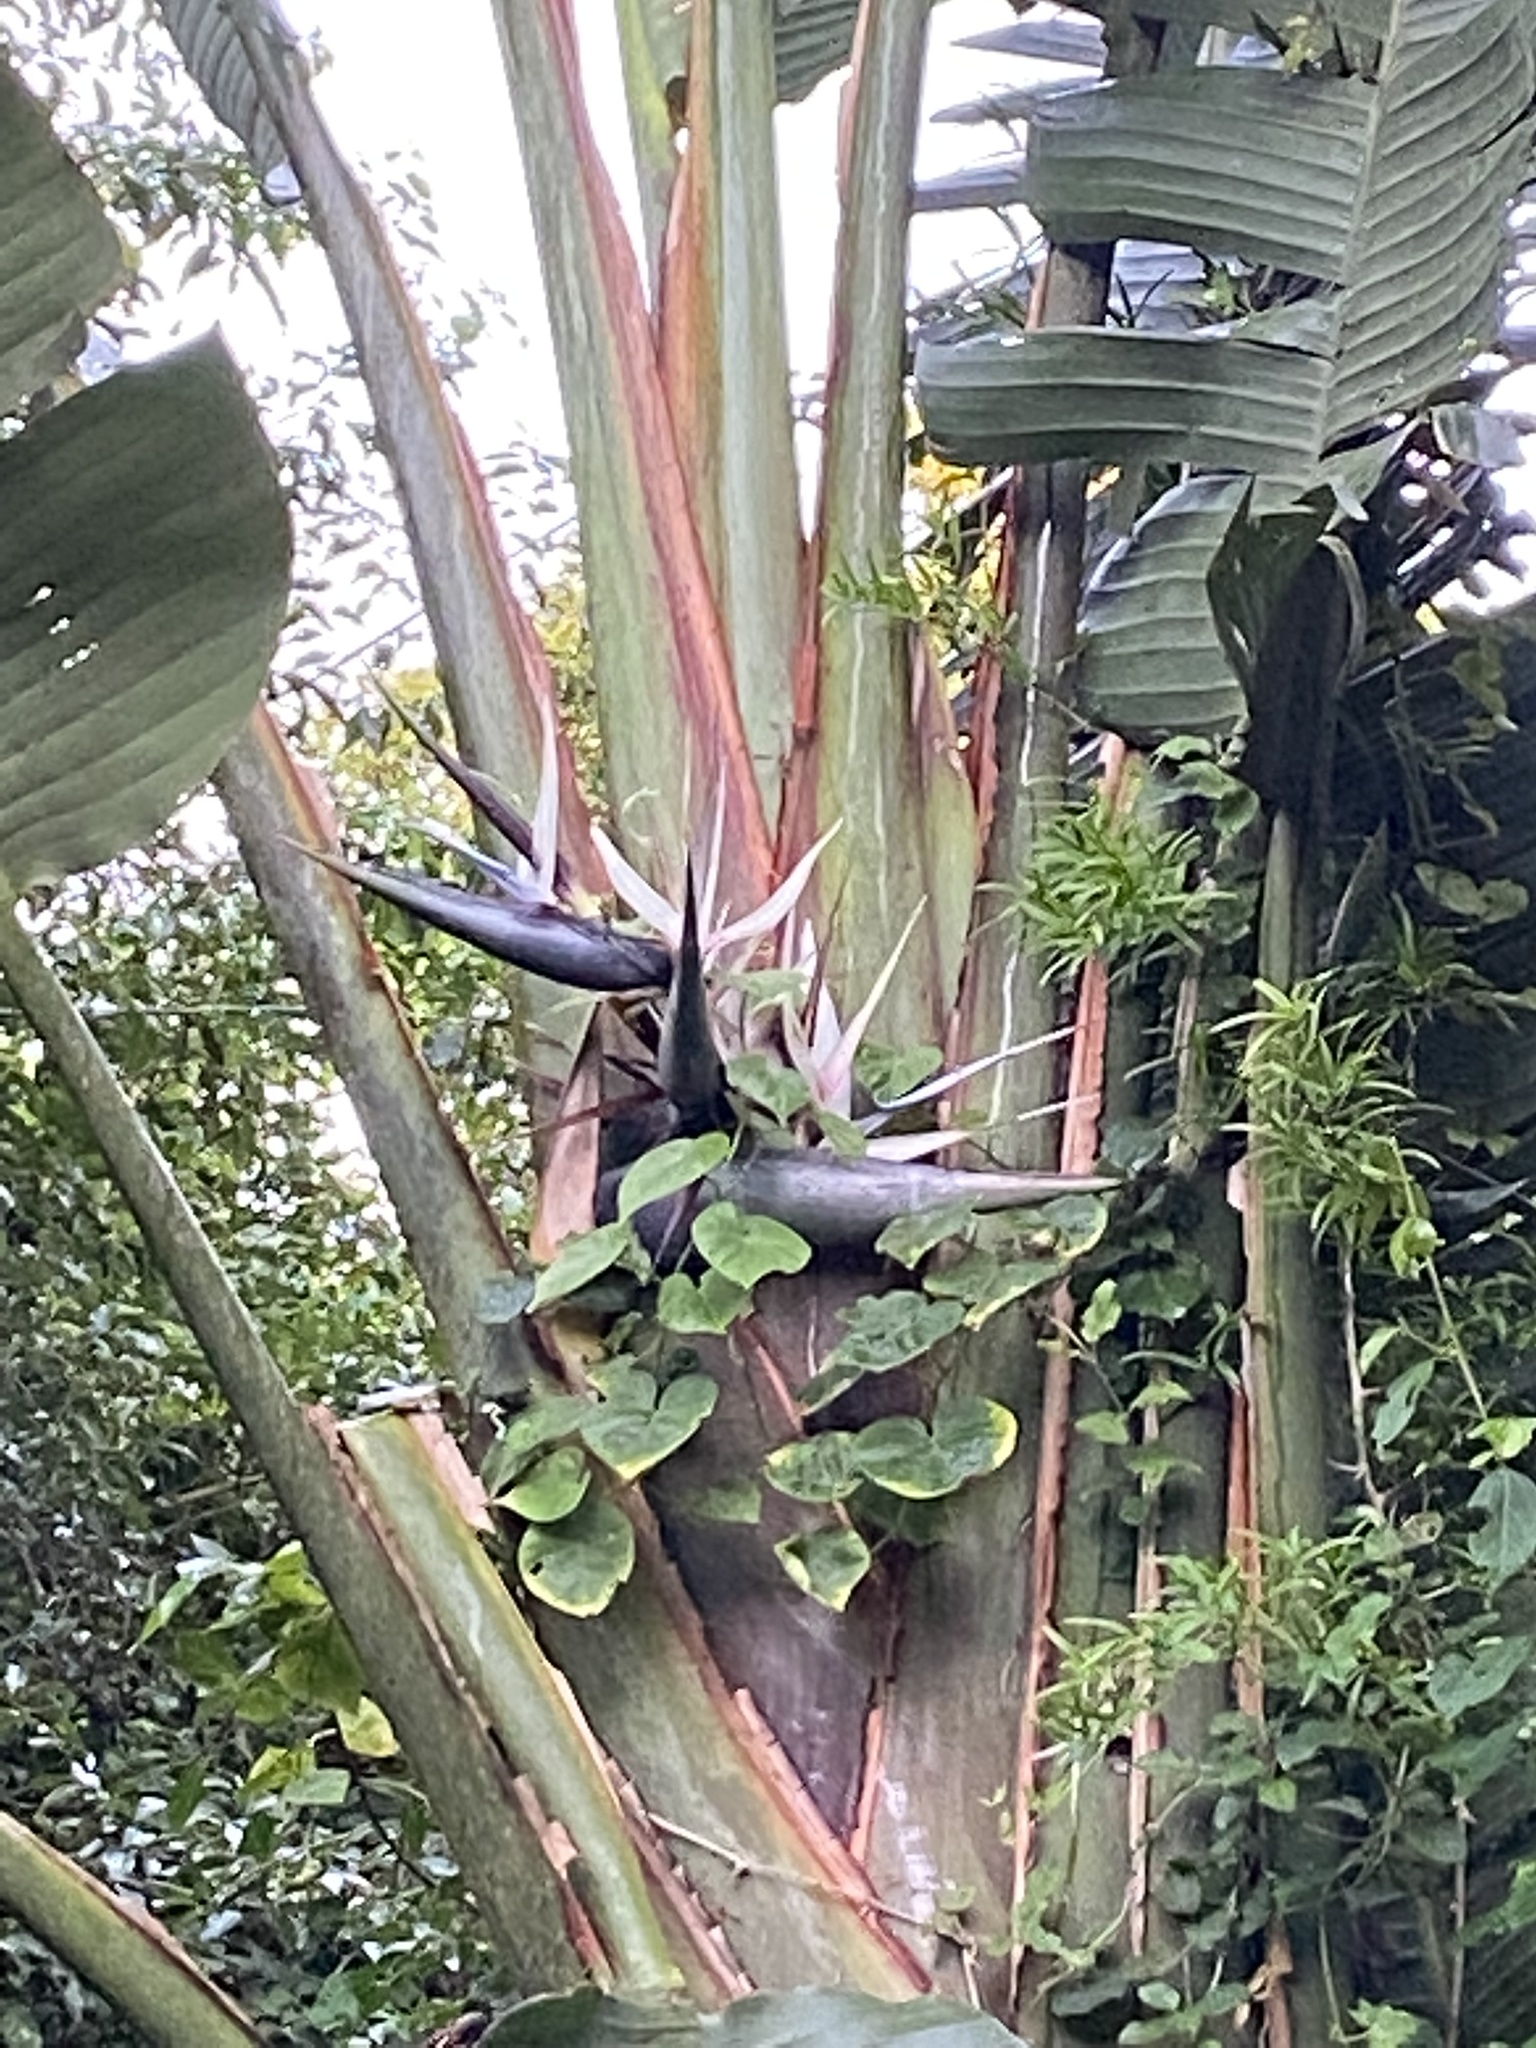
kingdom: Plantae
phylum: Tracheophyta
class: Liliopsida
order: Zingiberales
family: Strelitziaceae
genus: Strelitzia
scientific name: Strelitzia nicolai
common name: Bird-of-paradise tree
